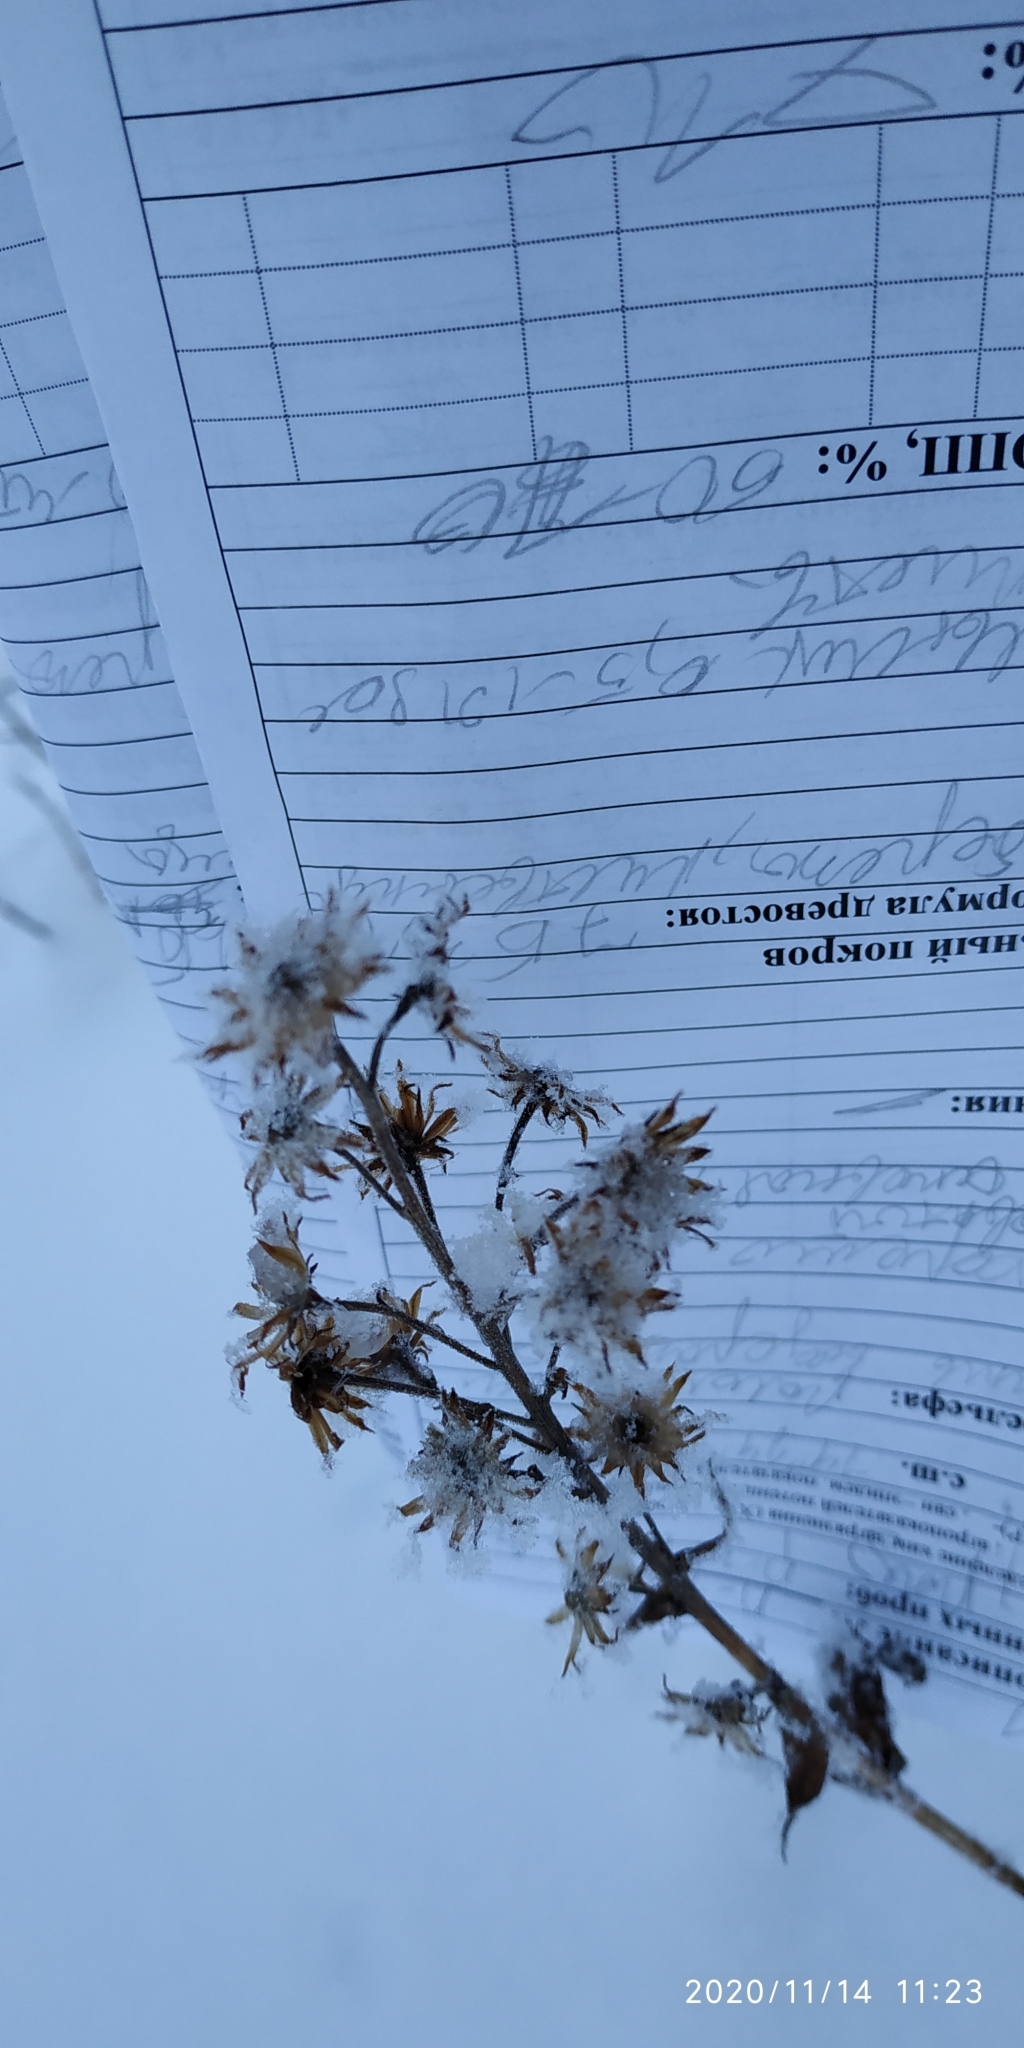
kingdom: Plantae
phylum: Tracheophyta
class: Magnoliopsida
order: Asterales
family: Asteraceae
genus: Solidago
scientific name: Solidago virgaurea
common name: Goldenrod
